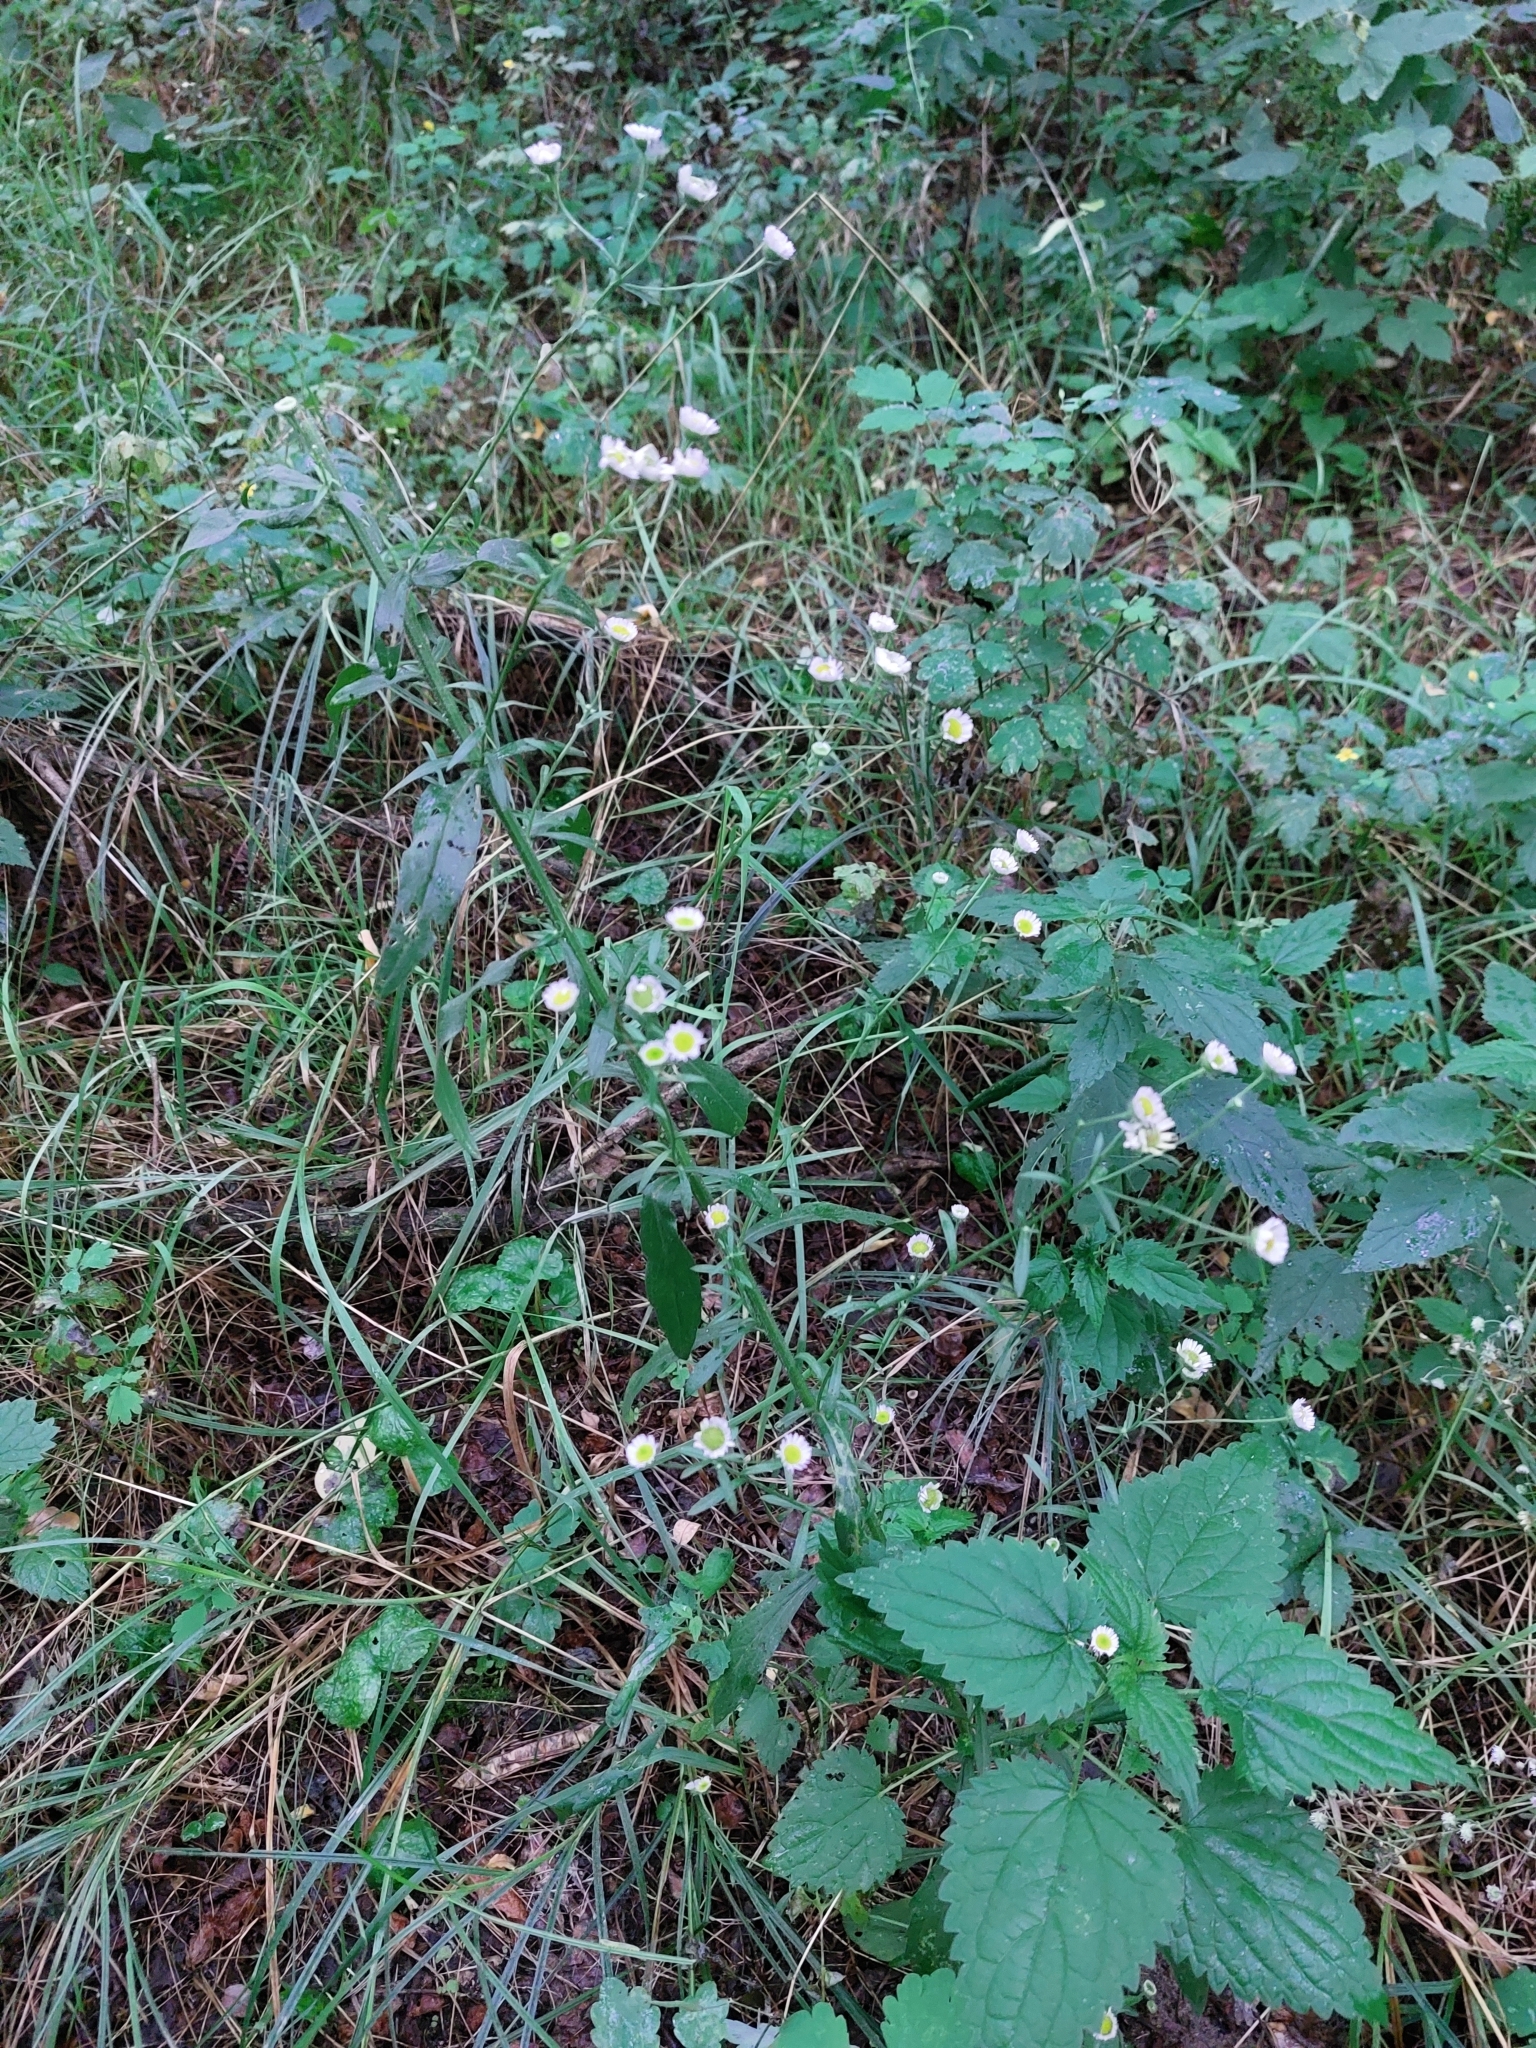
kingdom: Plantae
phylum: Tracheophyta
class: Magnoliopsida
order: Asterales
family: Asteraceae
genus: Erigeron
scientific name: Erigeron annuus
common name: Tall fleabane
